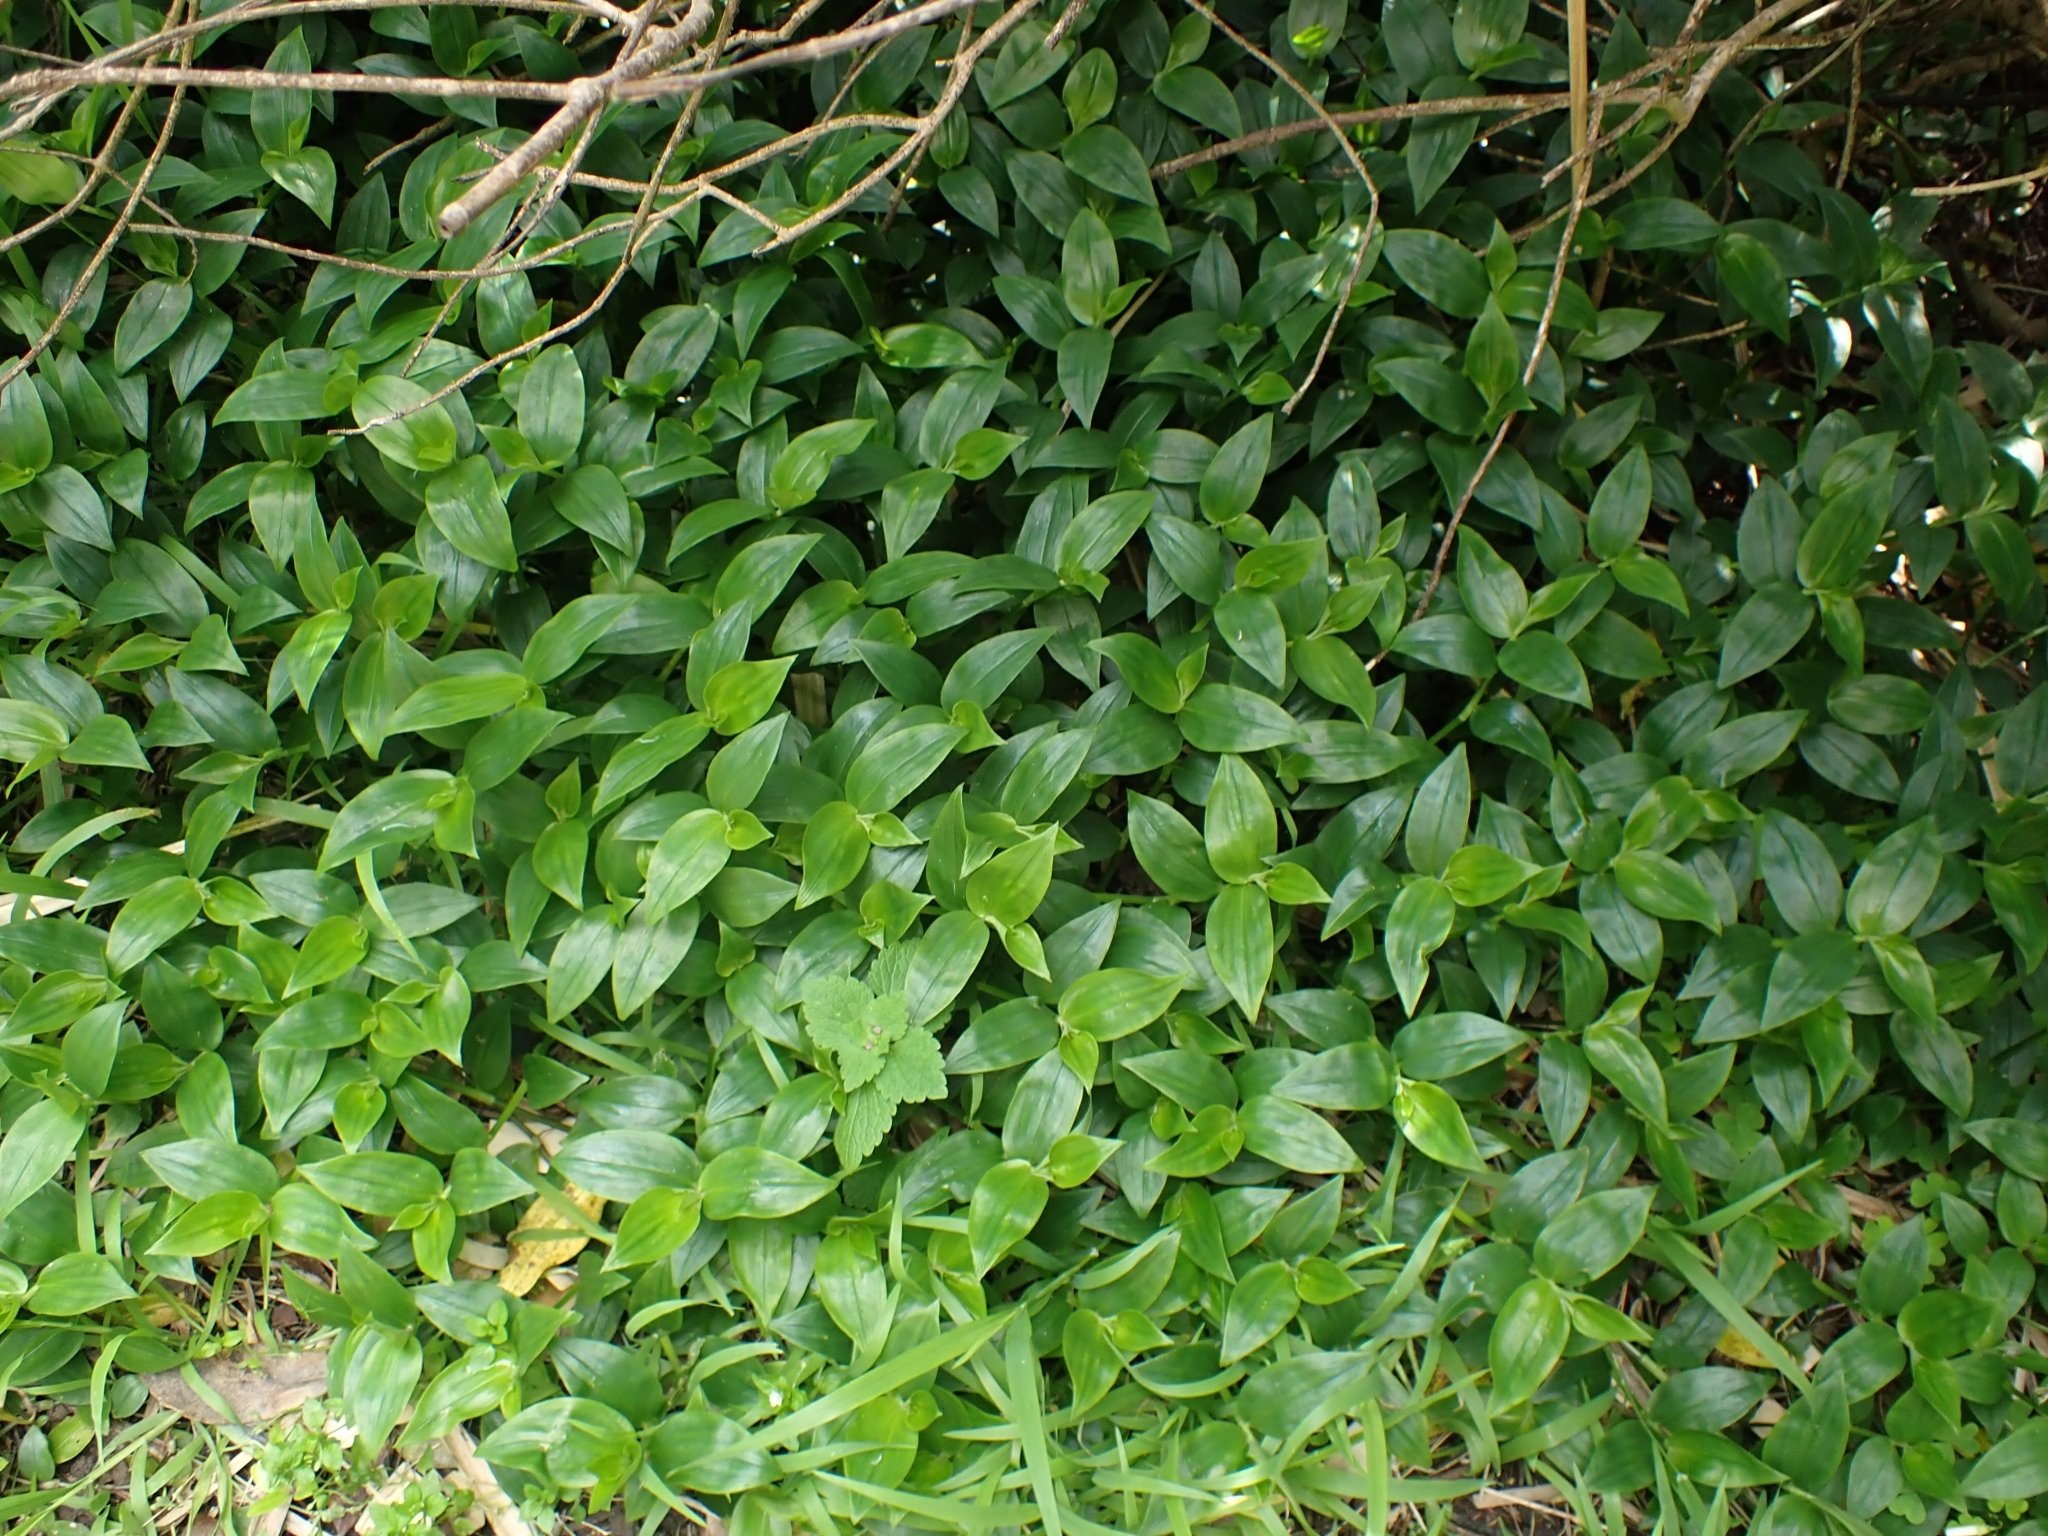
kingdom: Plantae
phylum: Tracheophyta
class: Liliopsida
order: Commelinales
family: Commelinaceae
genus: Tradescantia
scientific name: Tradescantia fluminensis
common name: Wandering-jew
